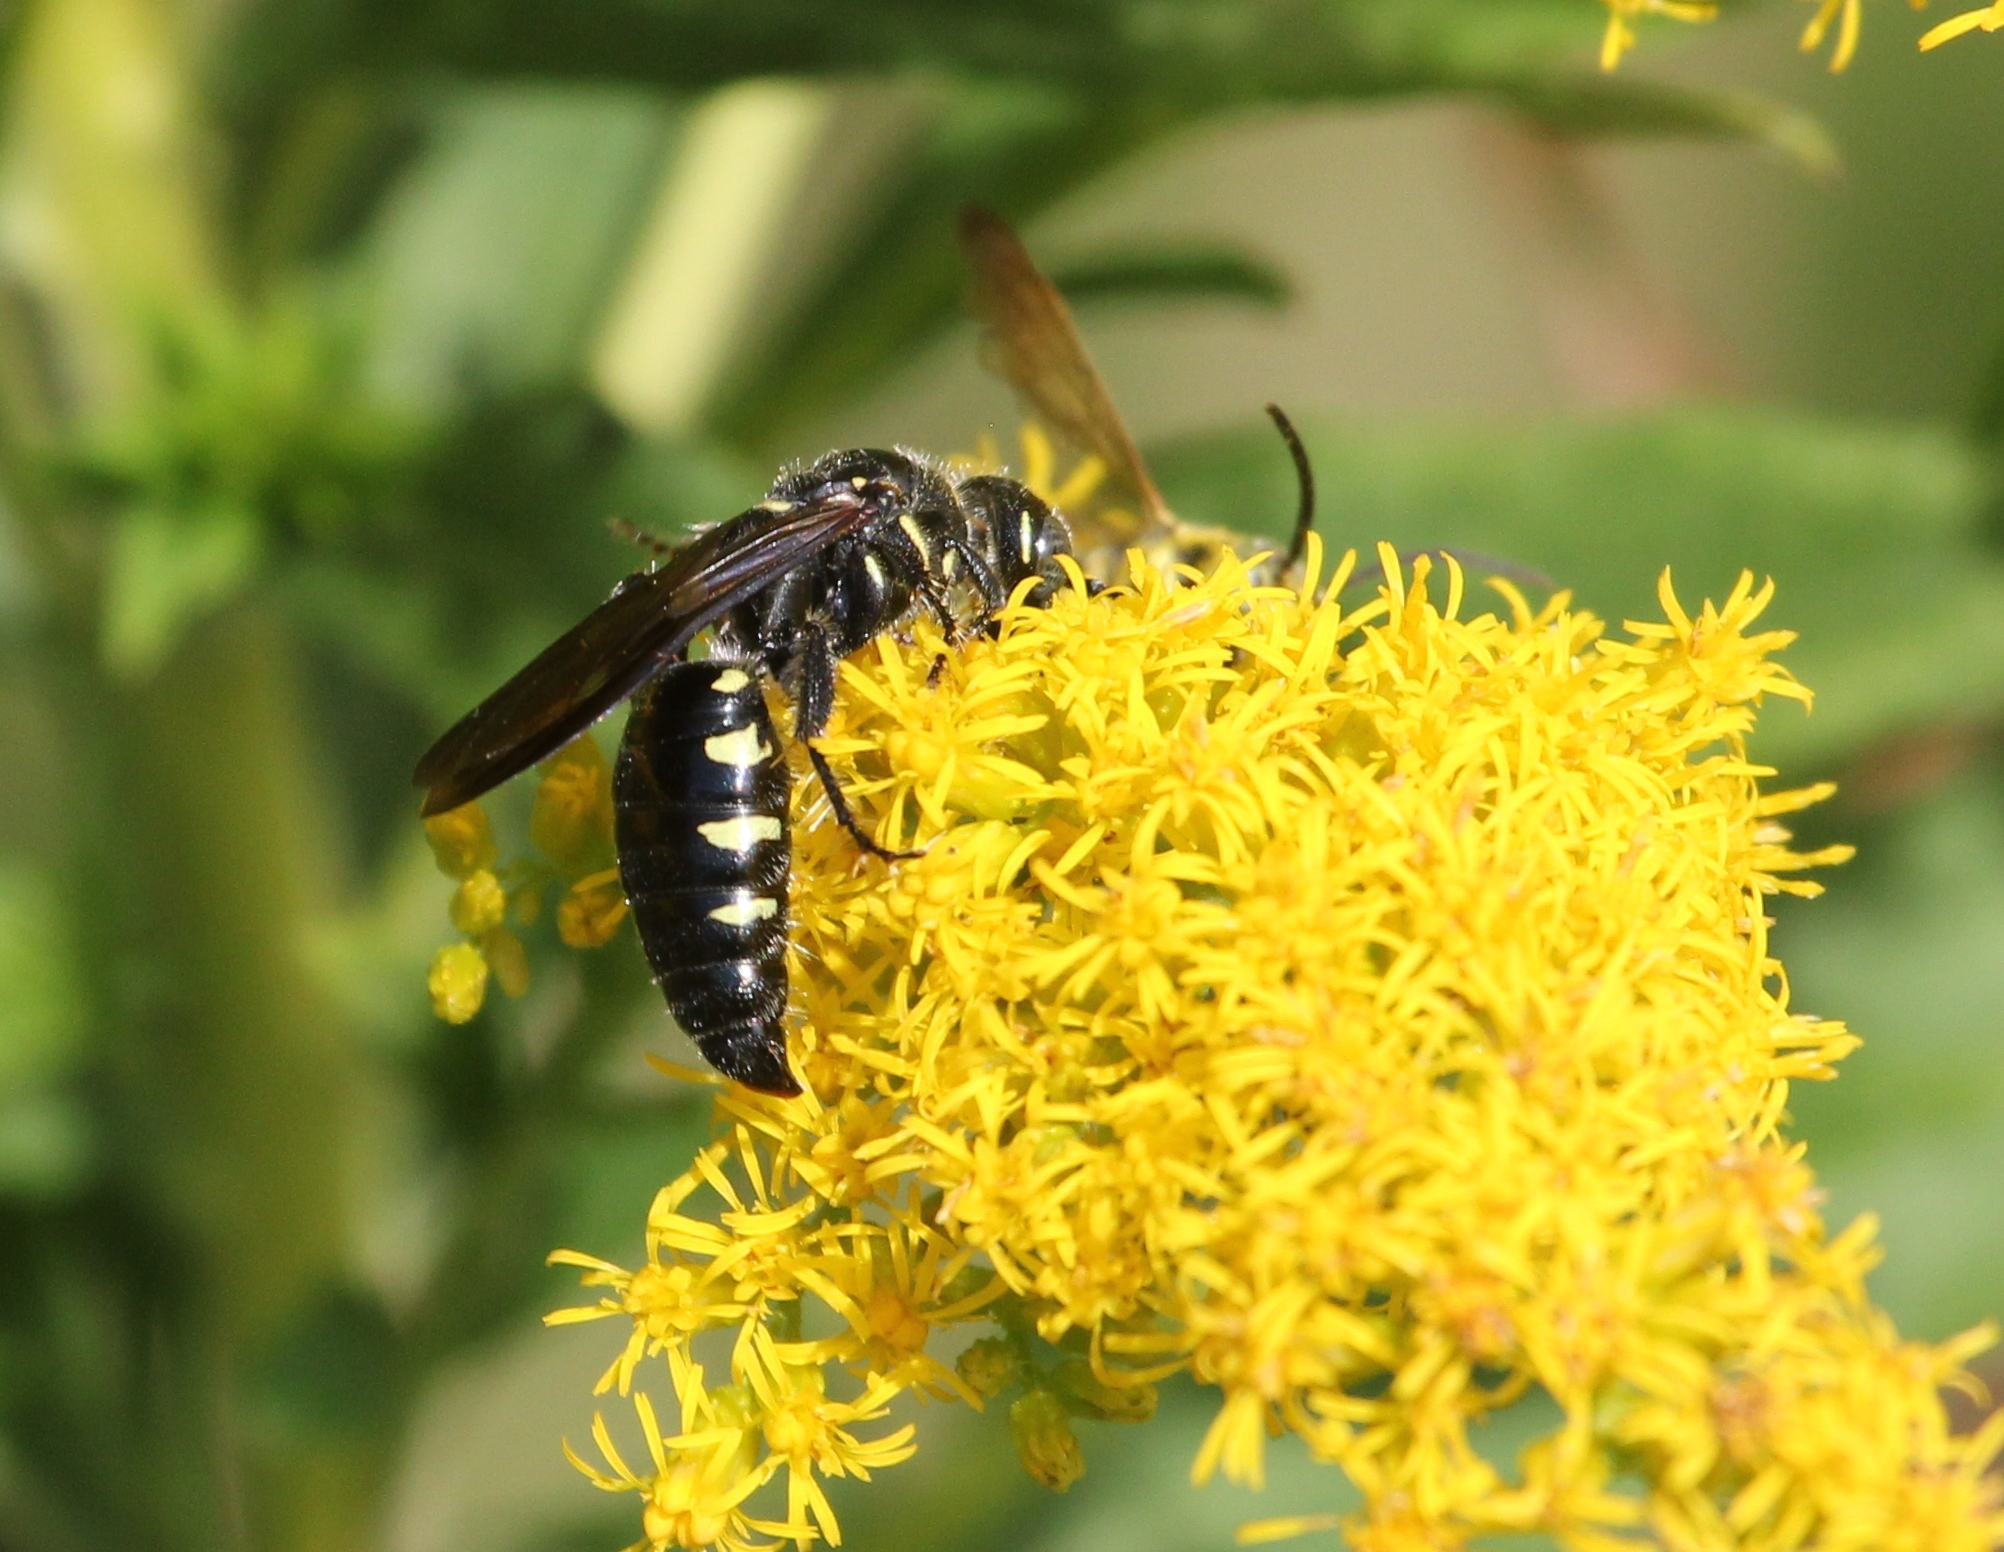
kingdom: Animalia
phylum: Arthropoda
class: Insecta
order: Hymenoptera
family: Tiphiidae
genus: Myzinum
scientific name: Myzinum obscurum
